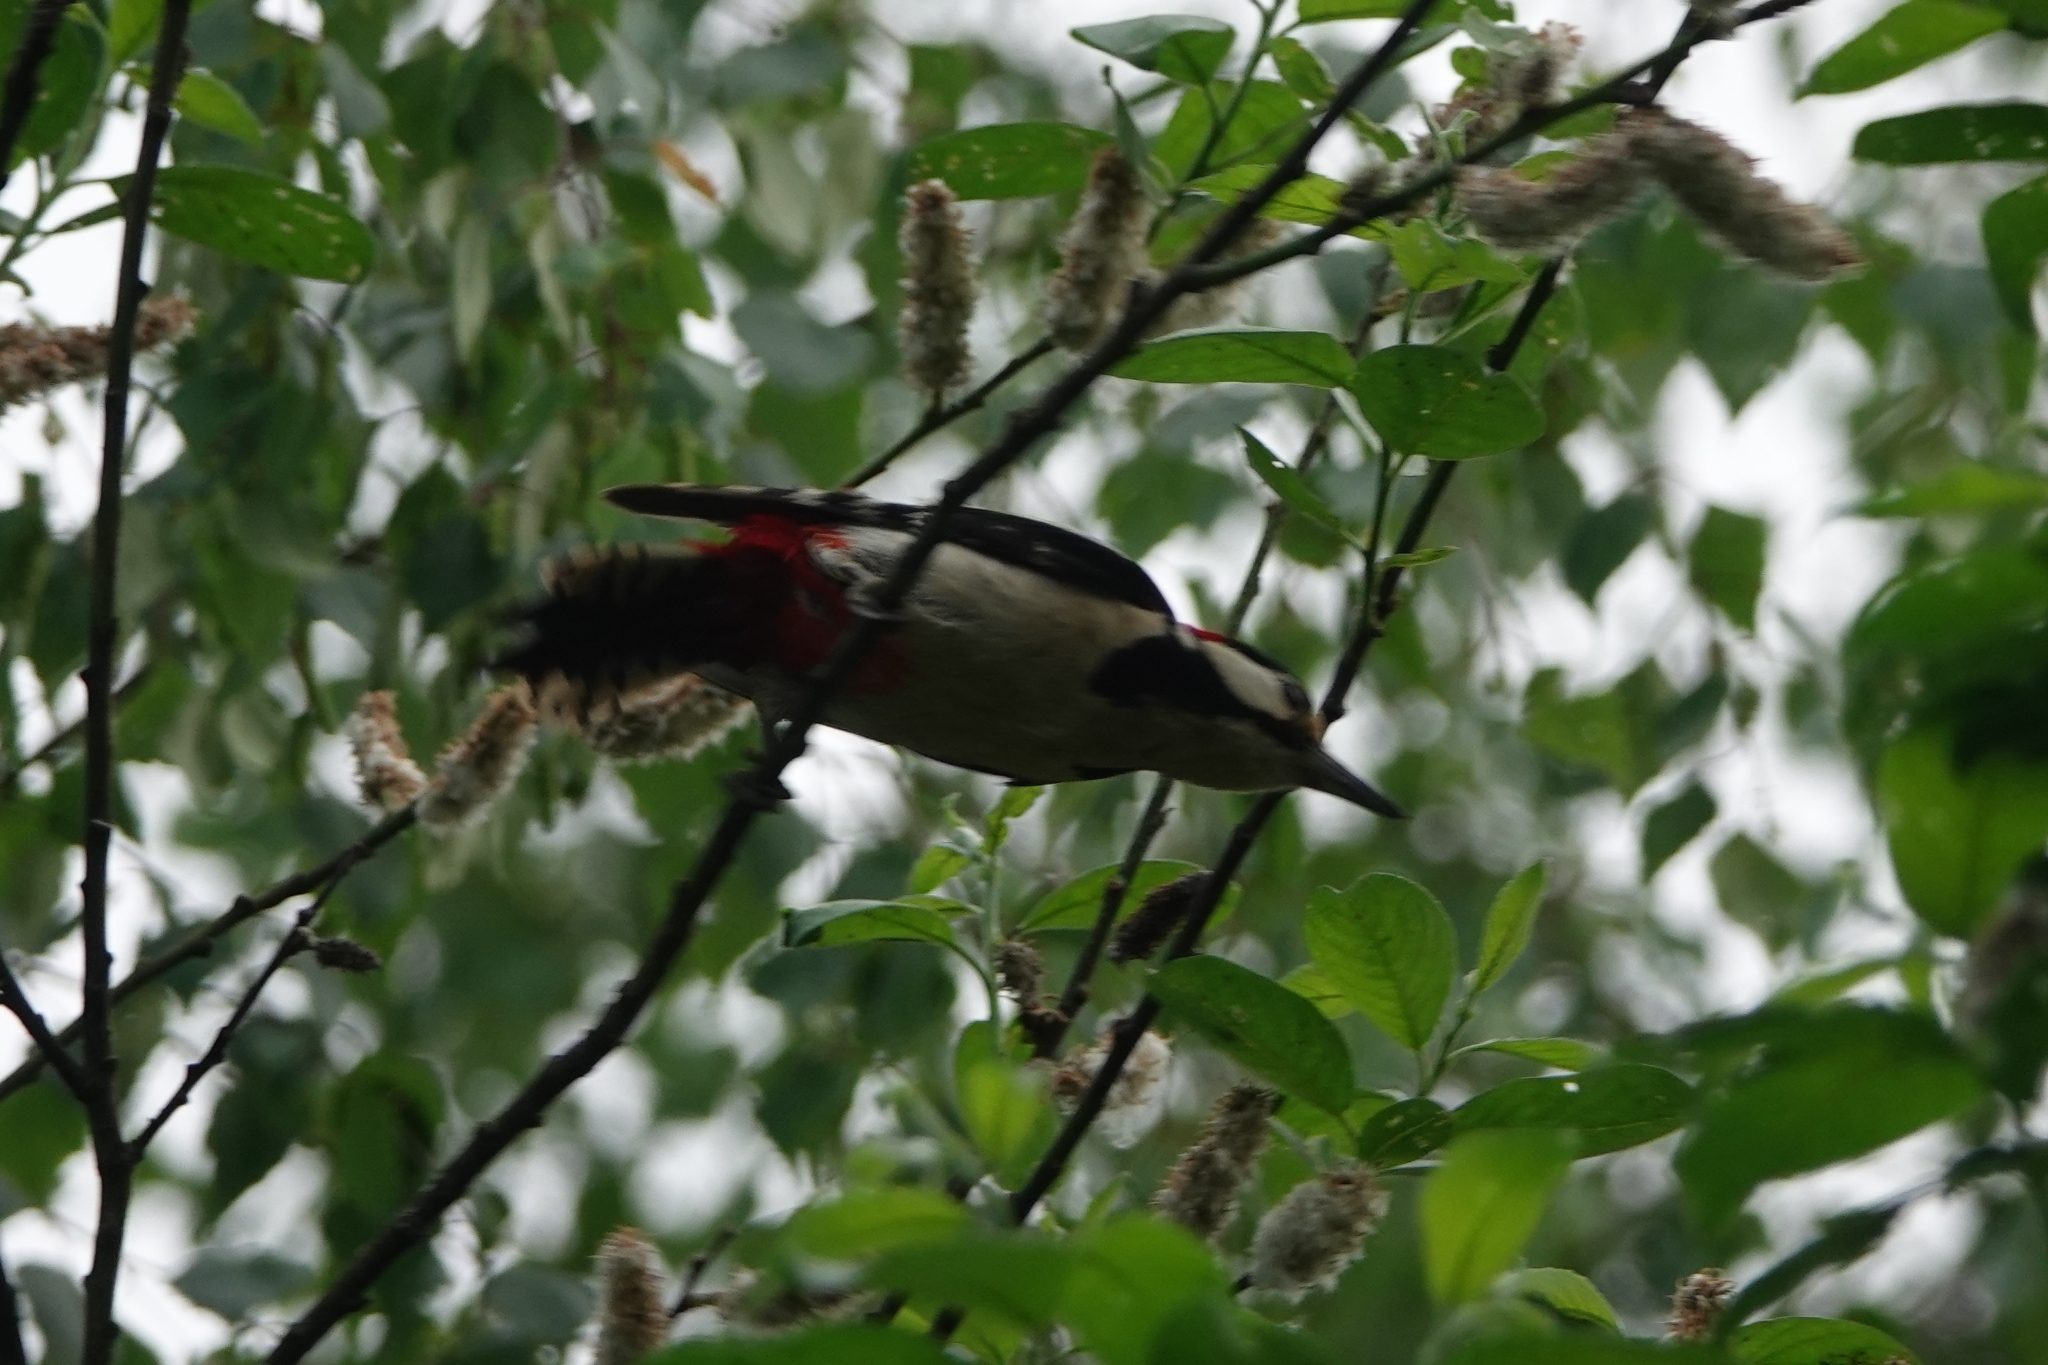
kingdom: Animalia
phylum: Chordata
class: Aves
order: Piciformes
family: Picidae
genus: Dendrocopos
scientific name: Dendrocopos major
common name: Great spotted woodpecker
